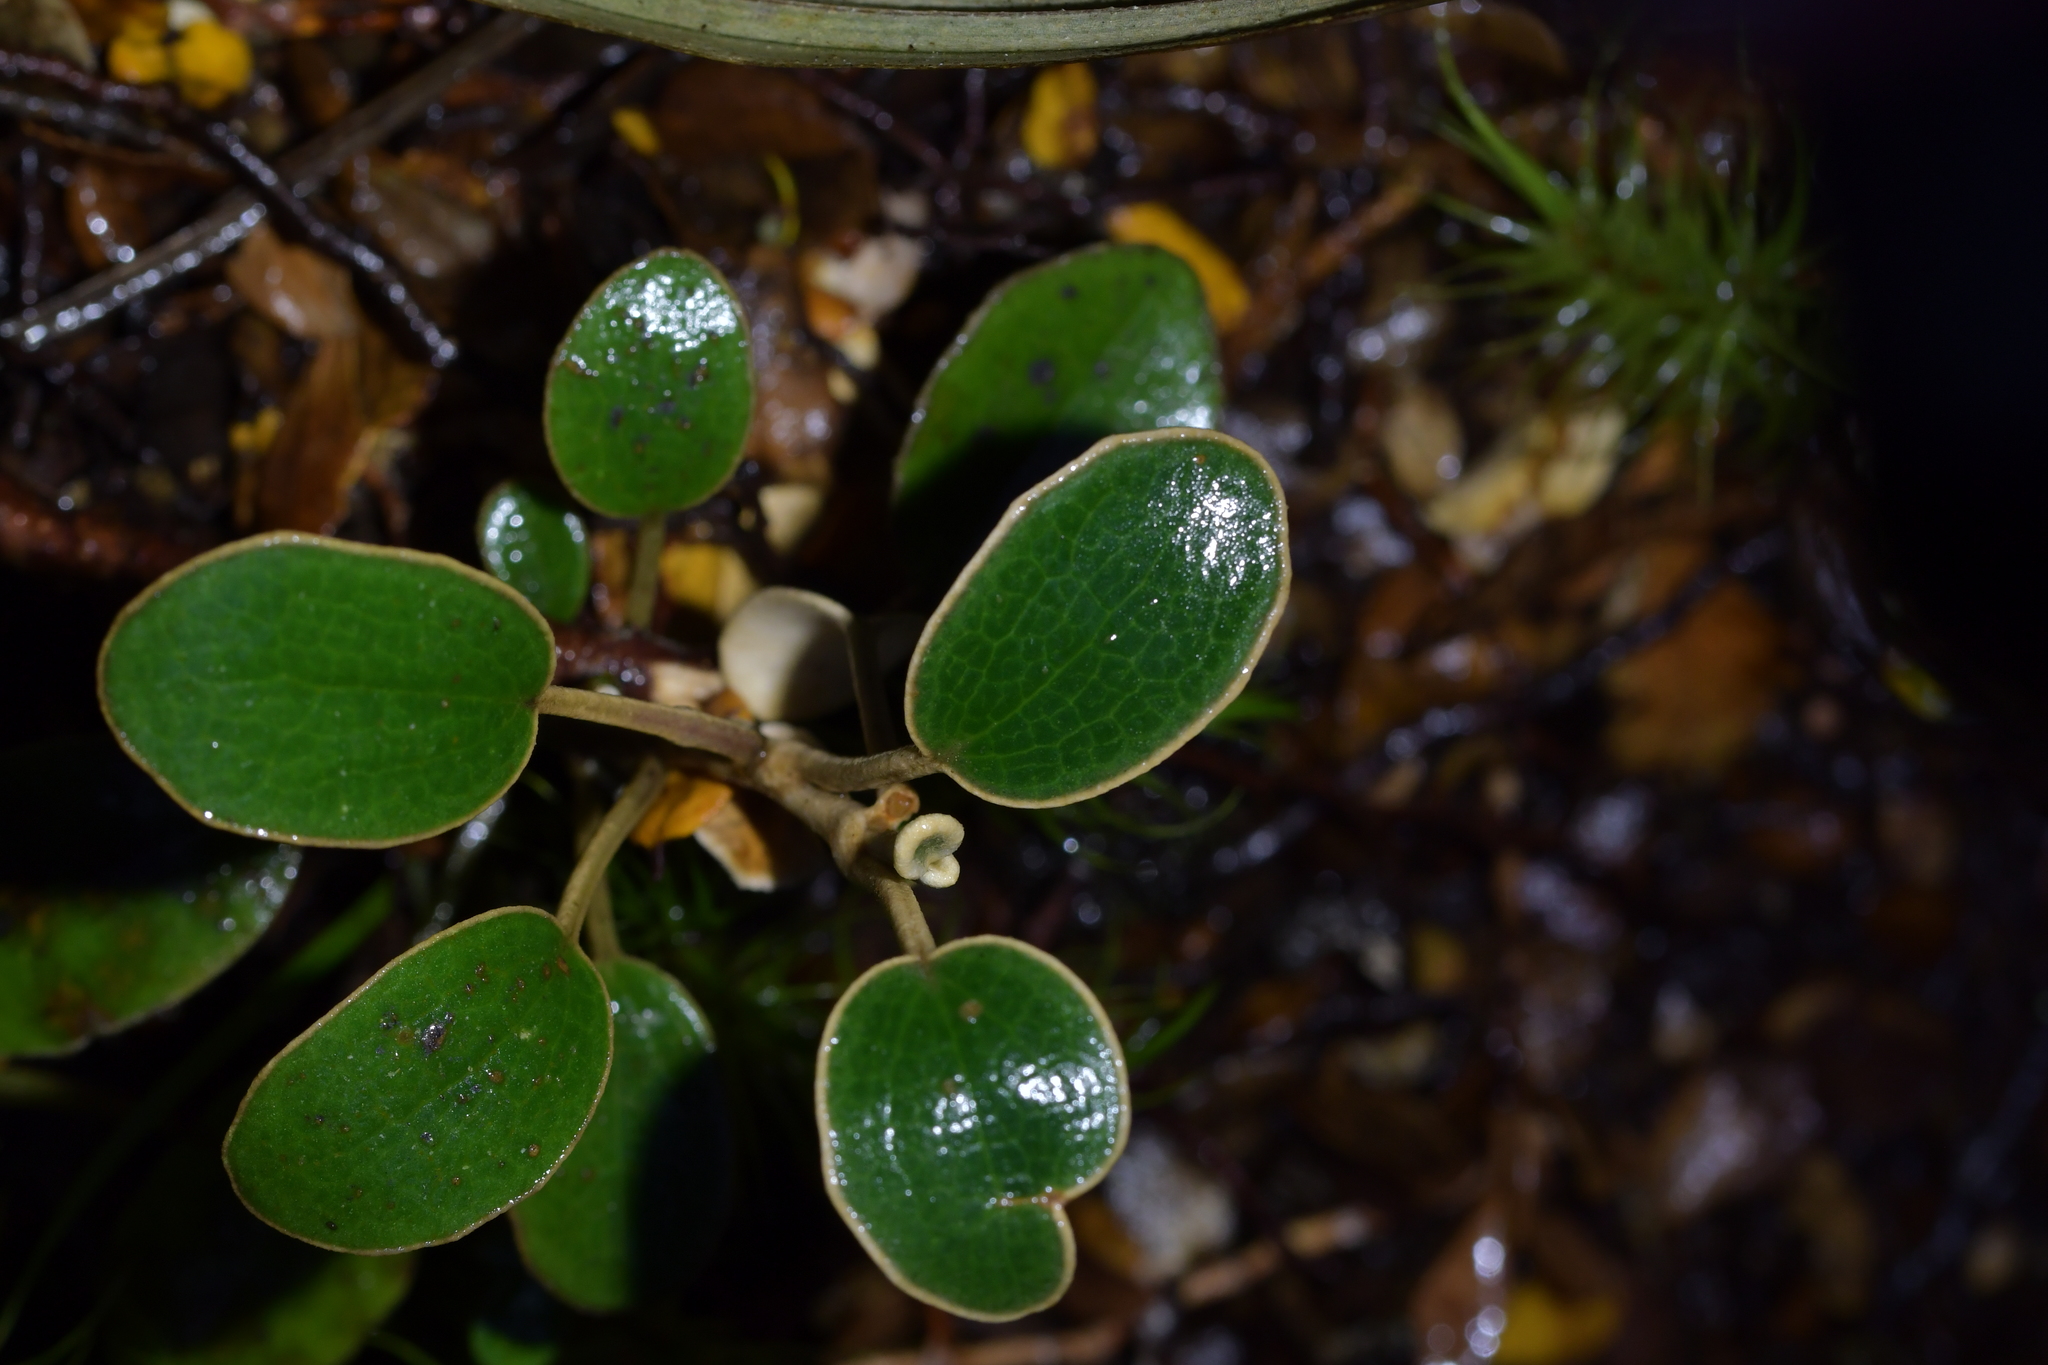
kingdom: Plantae
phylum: Tracheophyta
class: Magnoliopsida
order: Asterales
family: Asteraceae
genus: Brachyglottis
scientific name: Brachyglottis bidwillii
